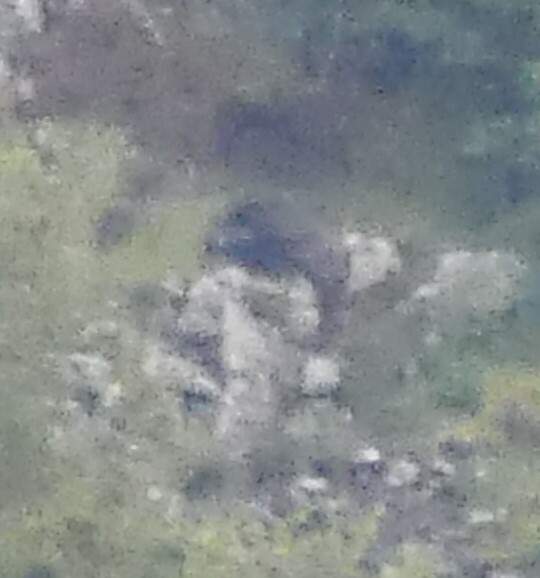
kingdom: Animalia
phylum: Chordata
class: Mammalia
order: Artiodactyla
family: Suidae
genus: Sus
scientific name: Sus scrofa
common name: Wild boar
